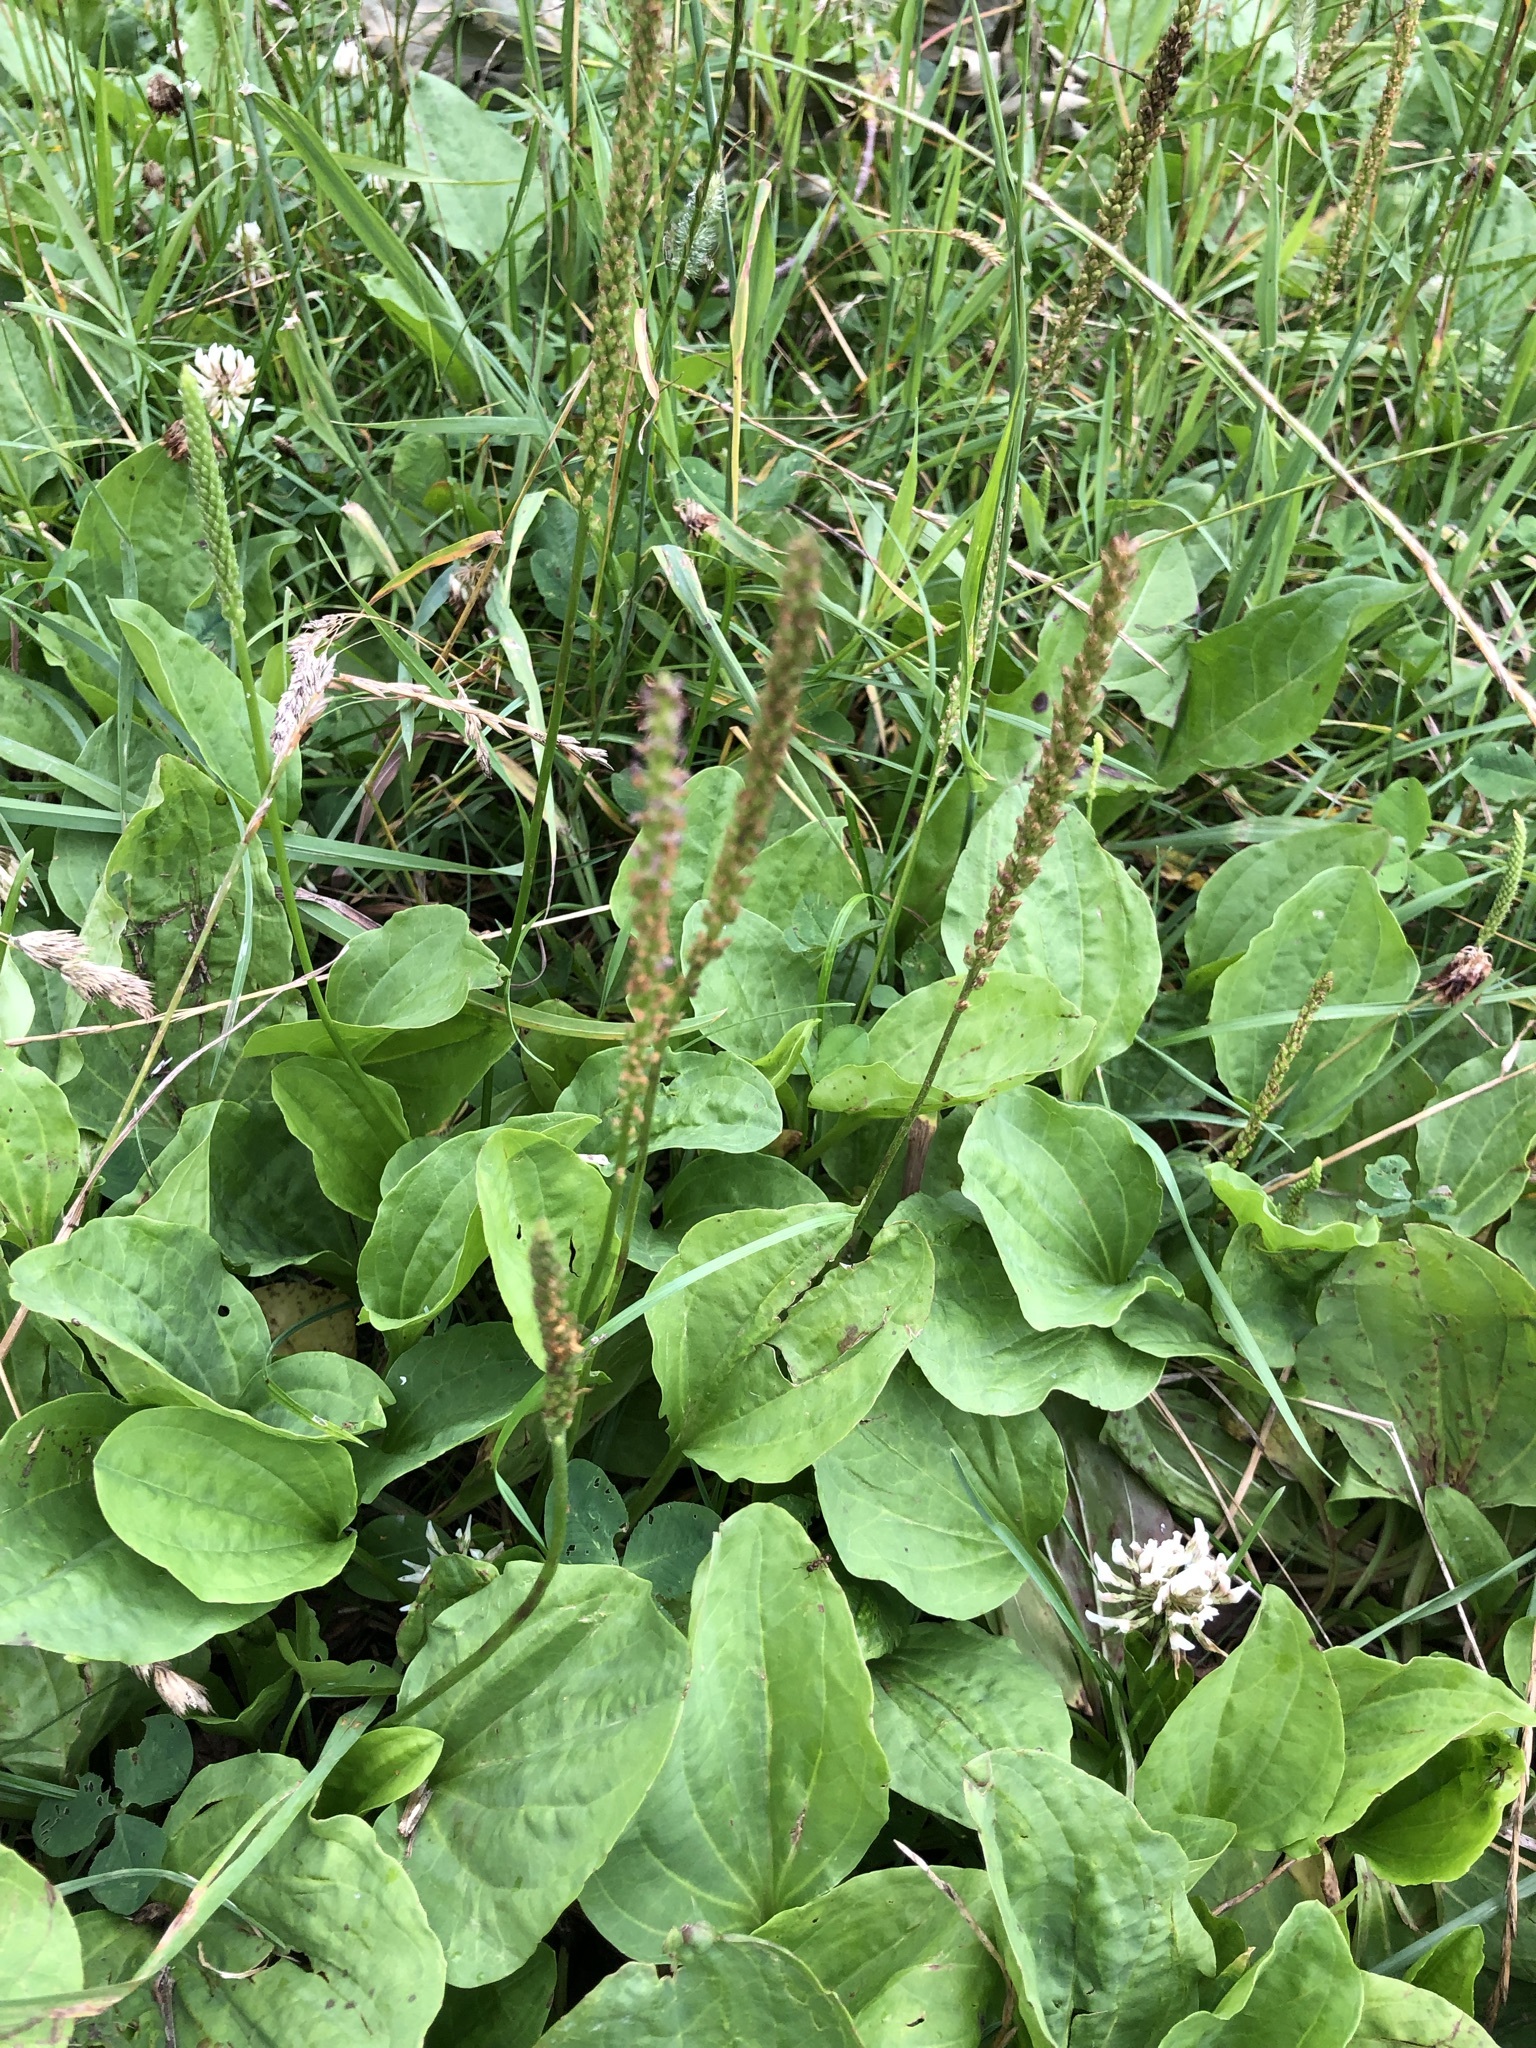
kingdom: Plantae
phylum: Tracheophyta
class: Magnoliopsida
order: Lamiales
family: Plantaginaceae
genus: Plantago
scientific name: Plantago major
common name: Common plantain
